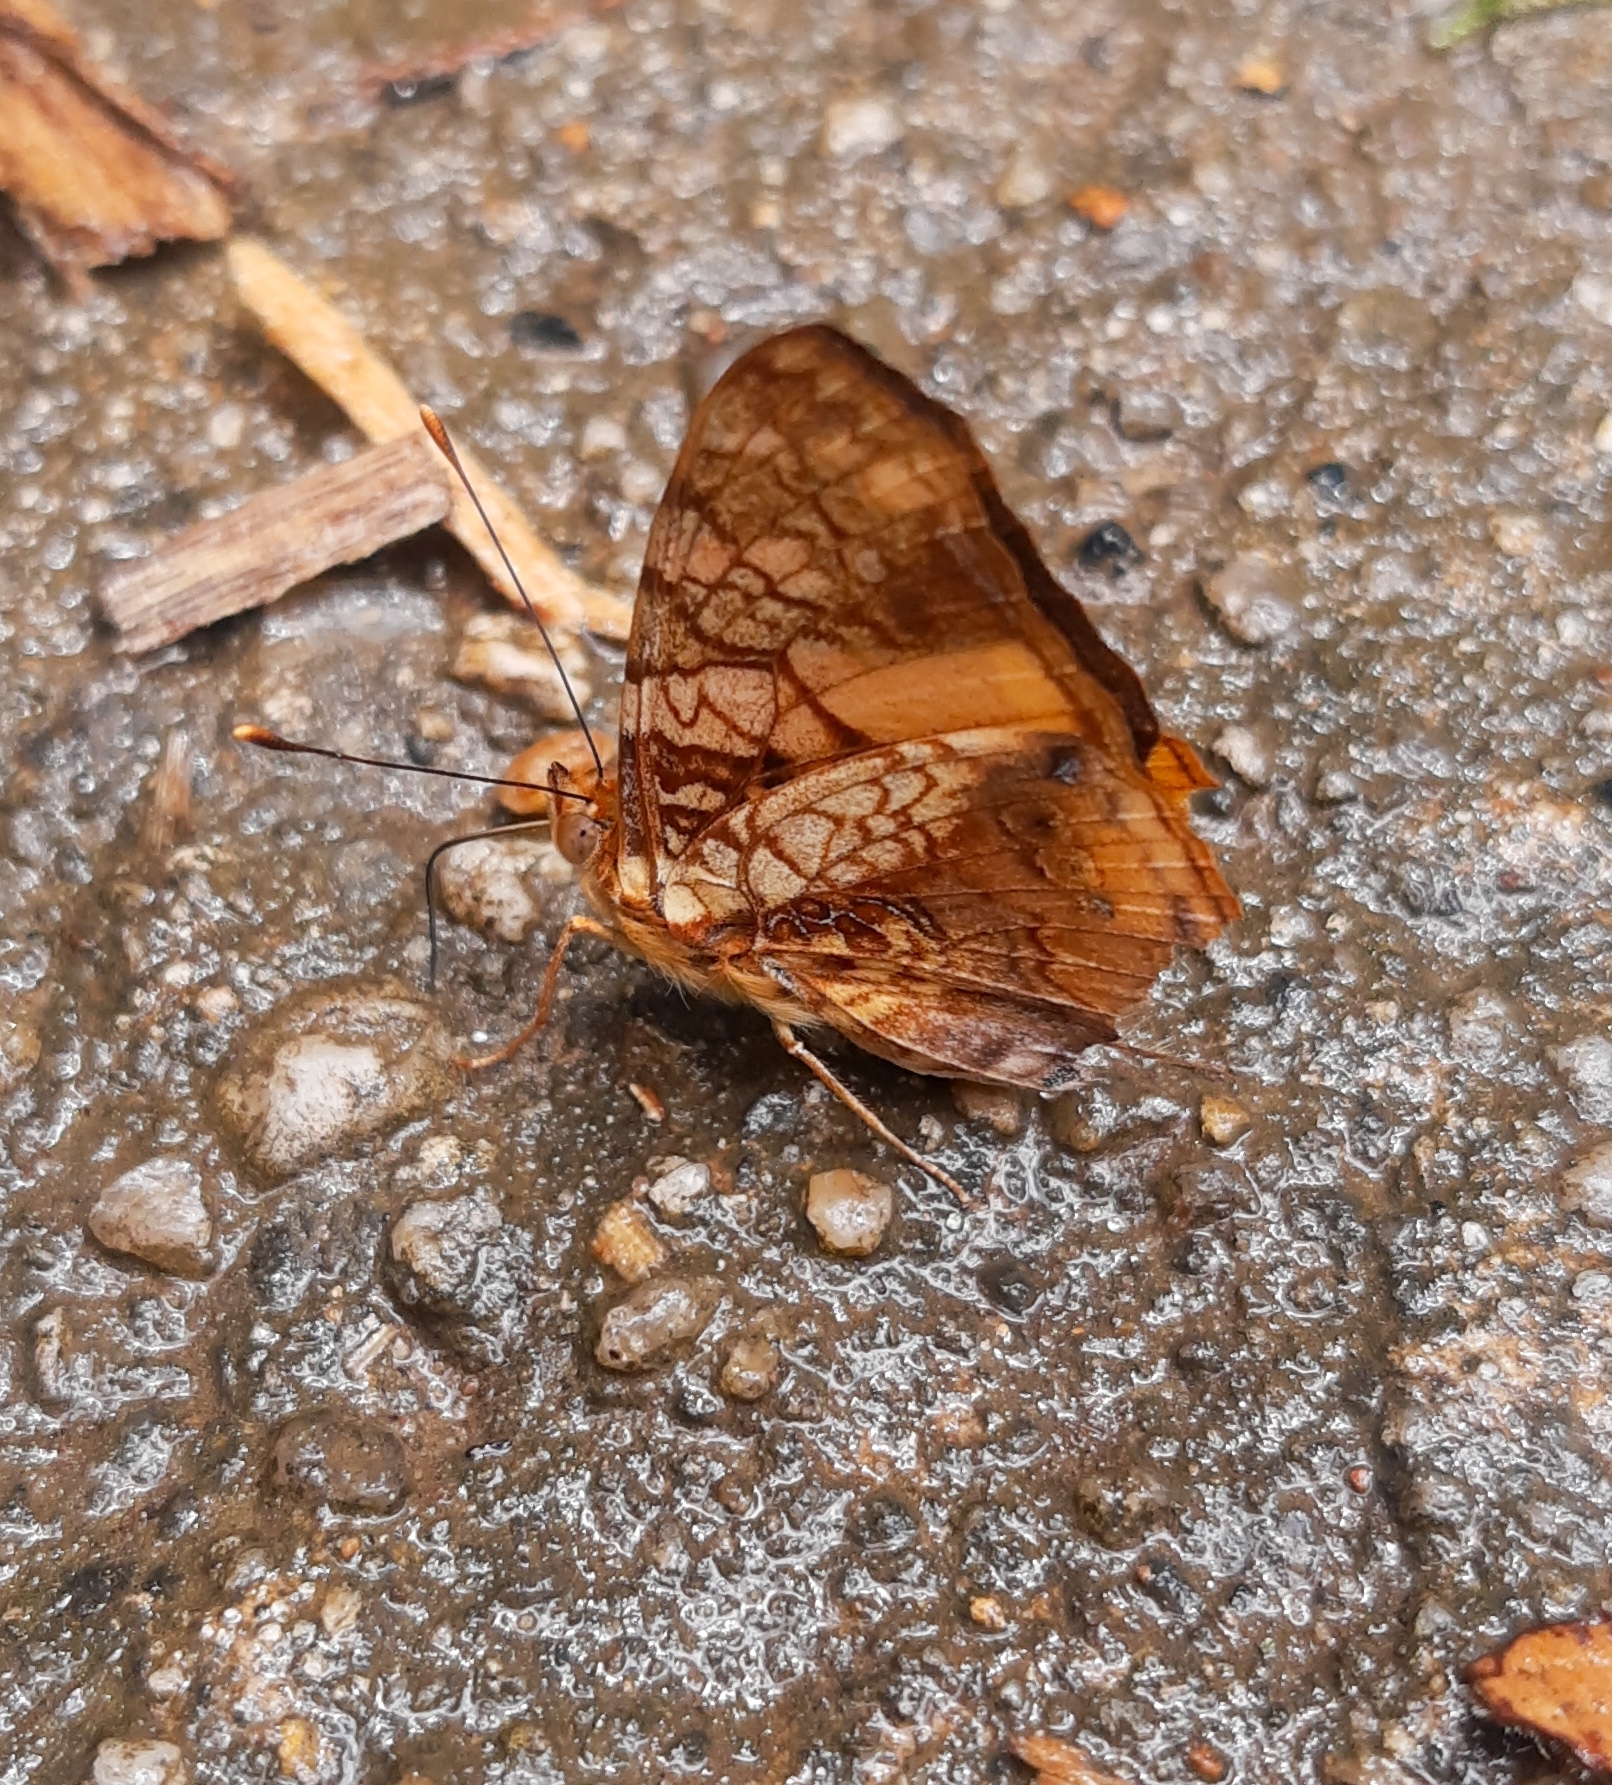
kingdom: Animalia
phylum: Arthropoda
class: Insecta
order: Lepidoptera
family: Nymphalidae
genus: Hypanartia
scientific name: Hypanartia lethe
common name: Orange mapwing
